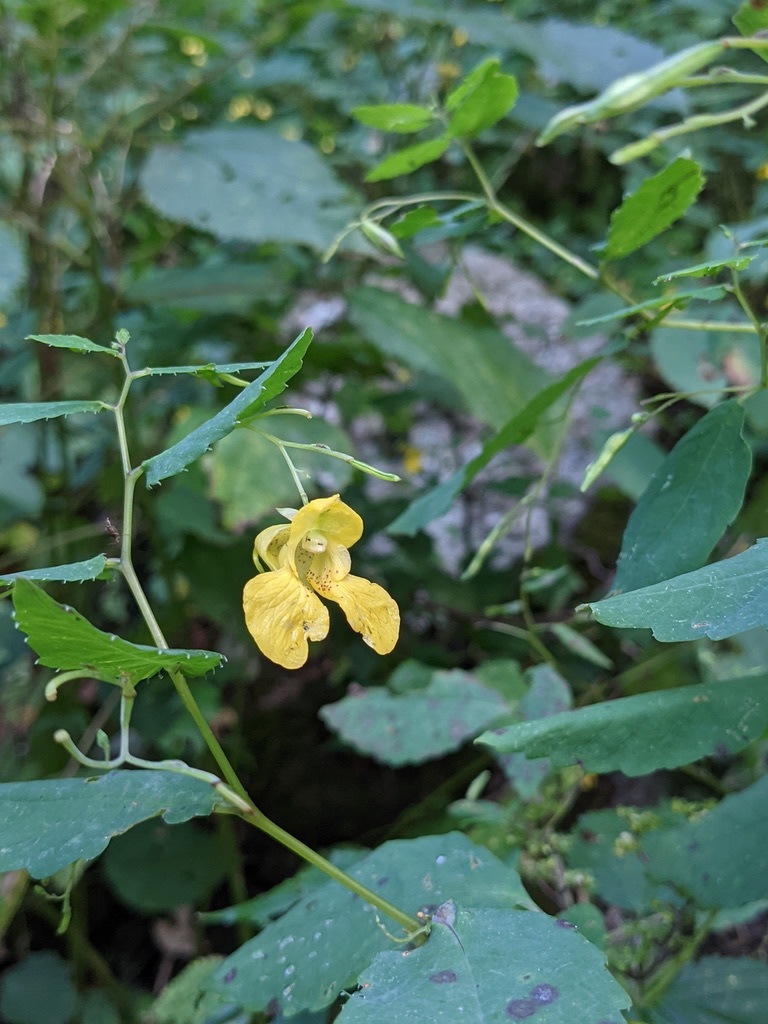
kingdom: Plantae
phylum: Tracheophyta
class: Magnoliopsida
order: Ericales
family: Balsaminaceae
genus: Impatiens
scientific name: Impatiens pallida
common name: Pale snapweed
